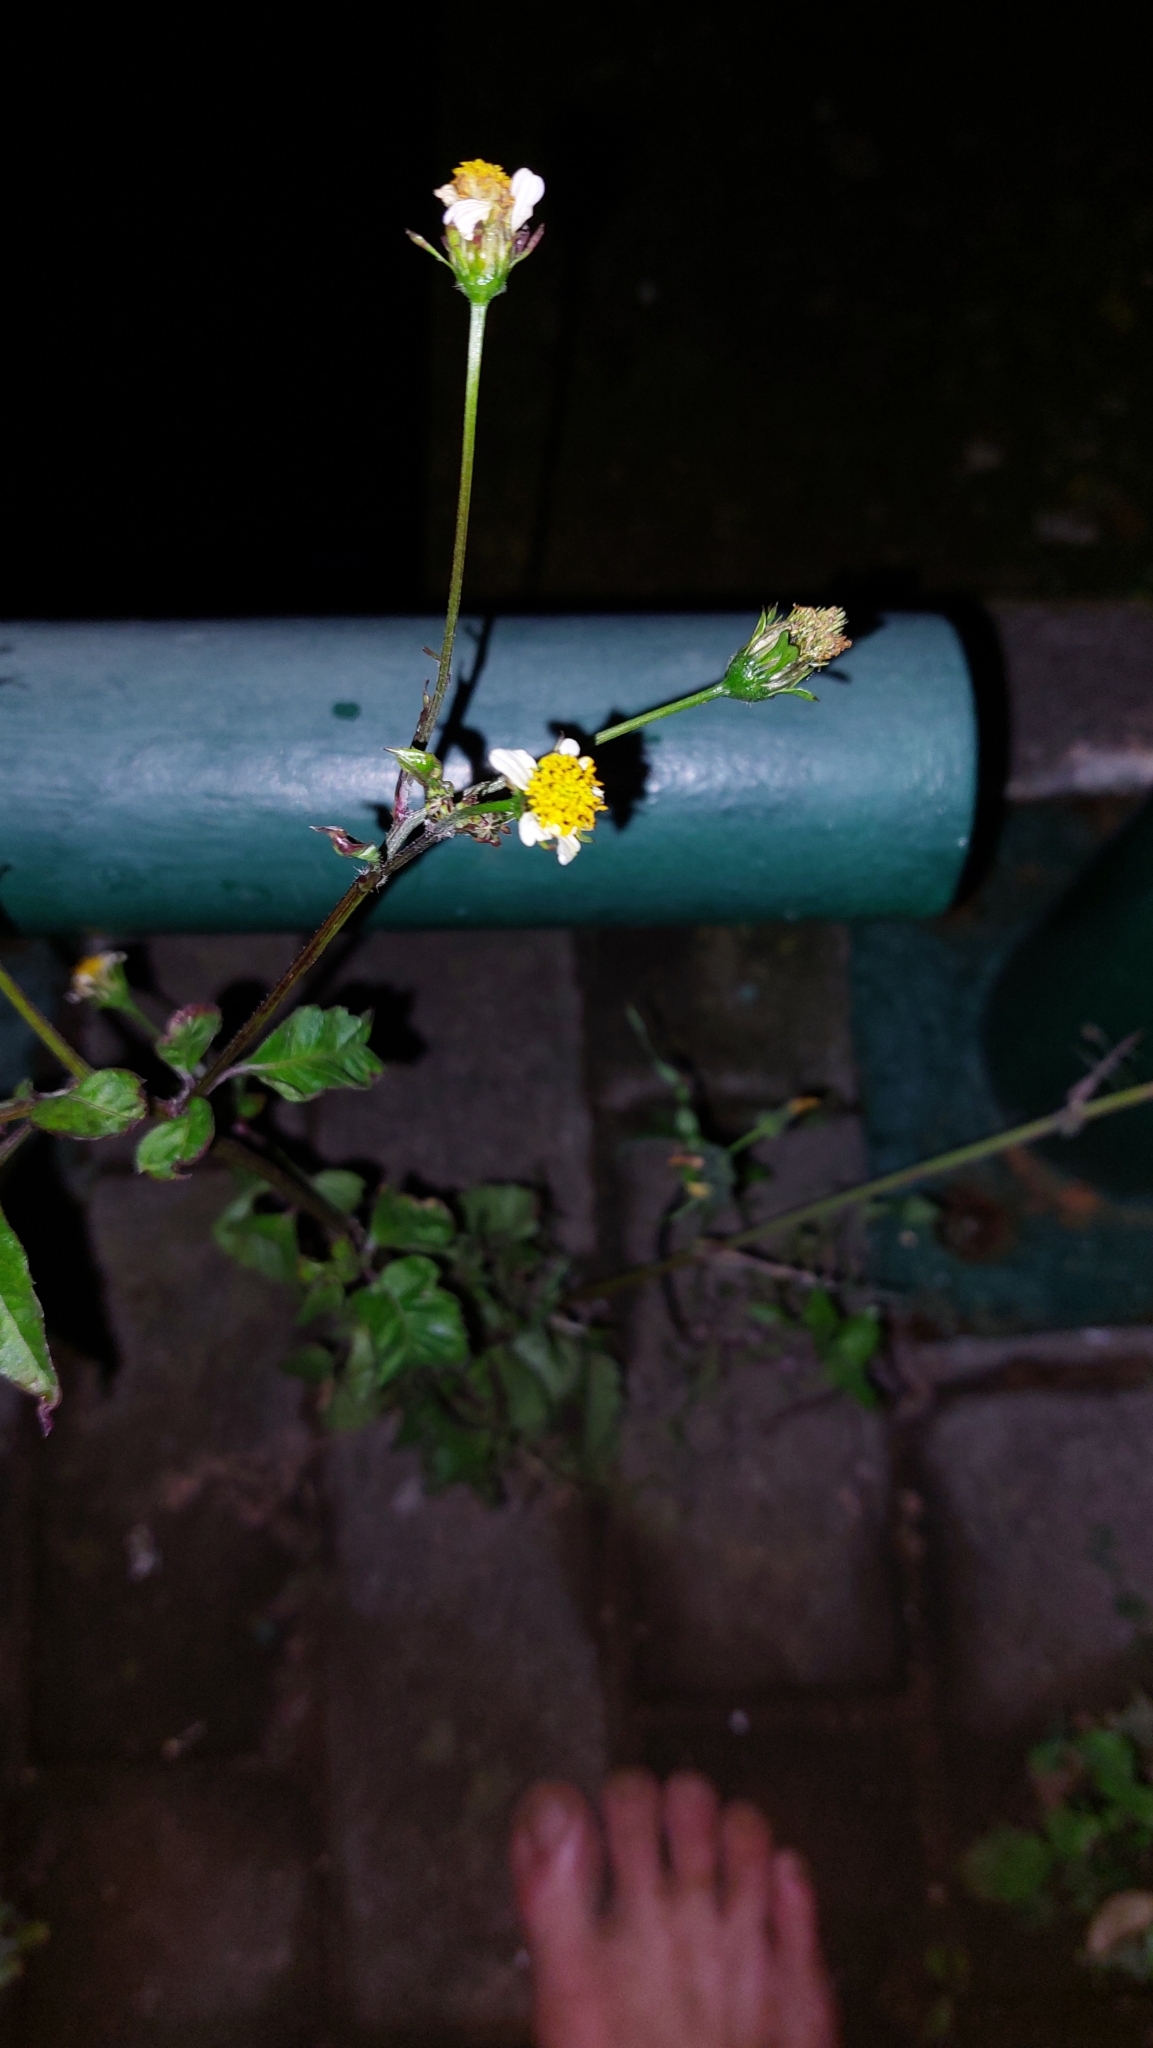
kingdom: Plantae
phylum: Tracheophyta
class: Magnoliopsida
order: Asterales
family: Asteraceae
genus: Bidens
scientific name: Bidens pilosa
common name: Black-jack
